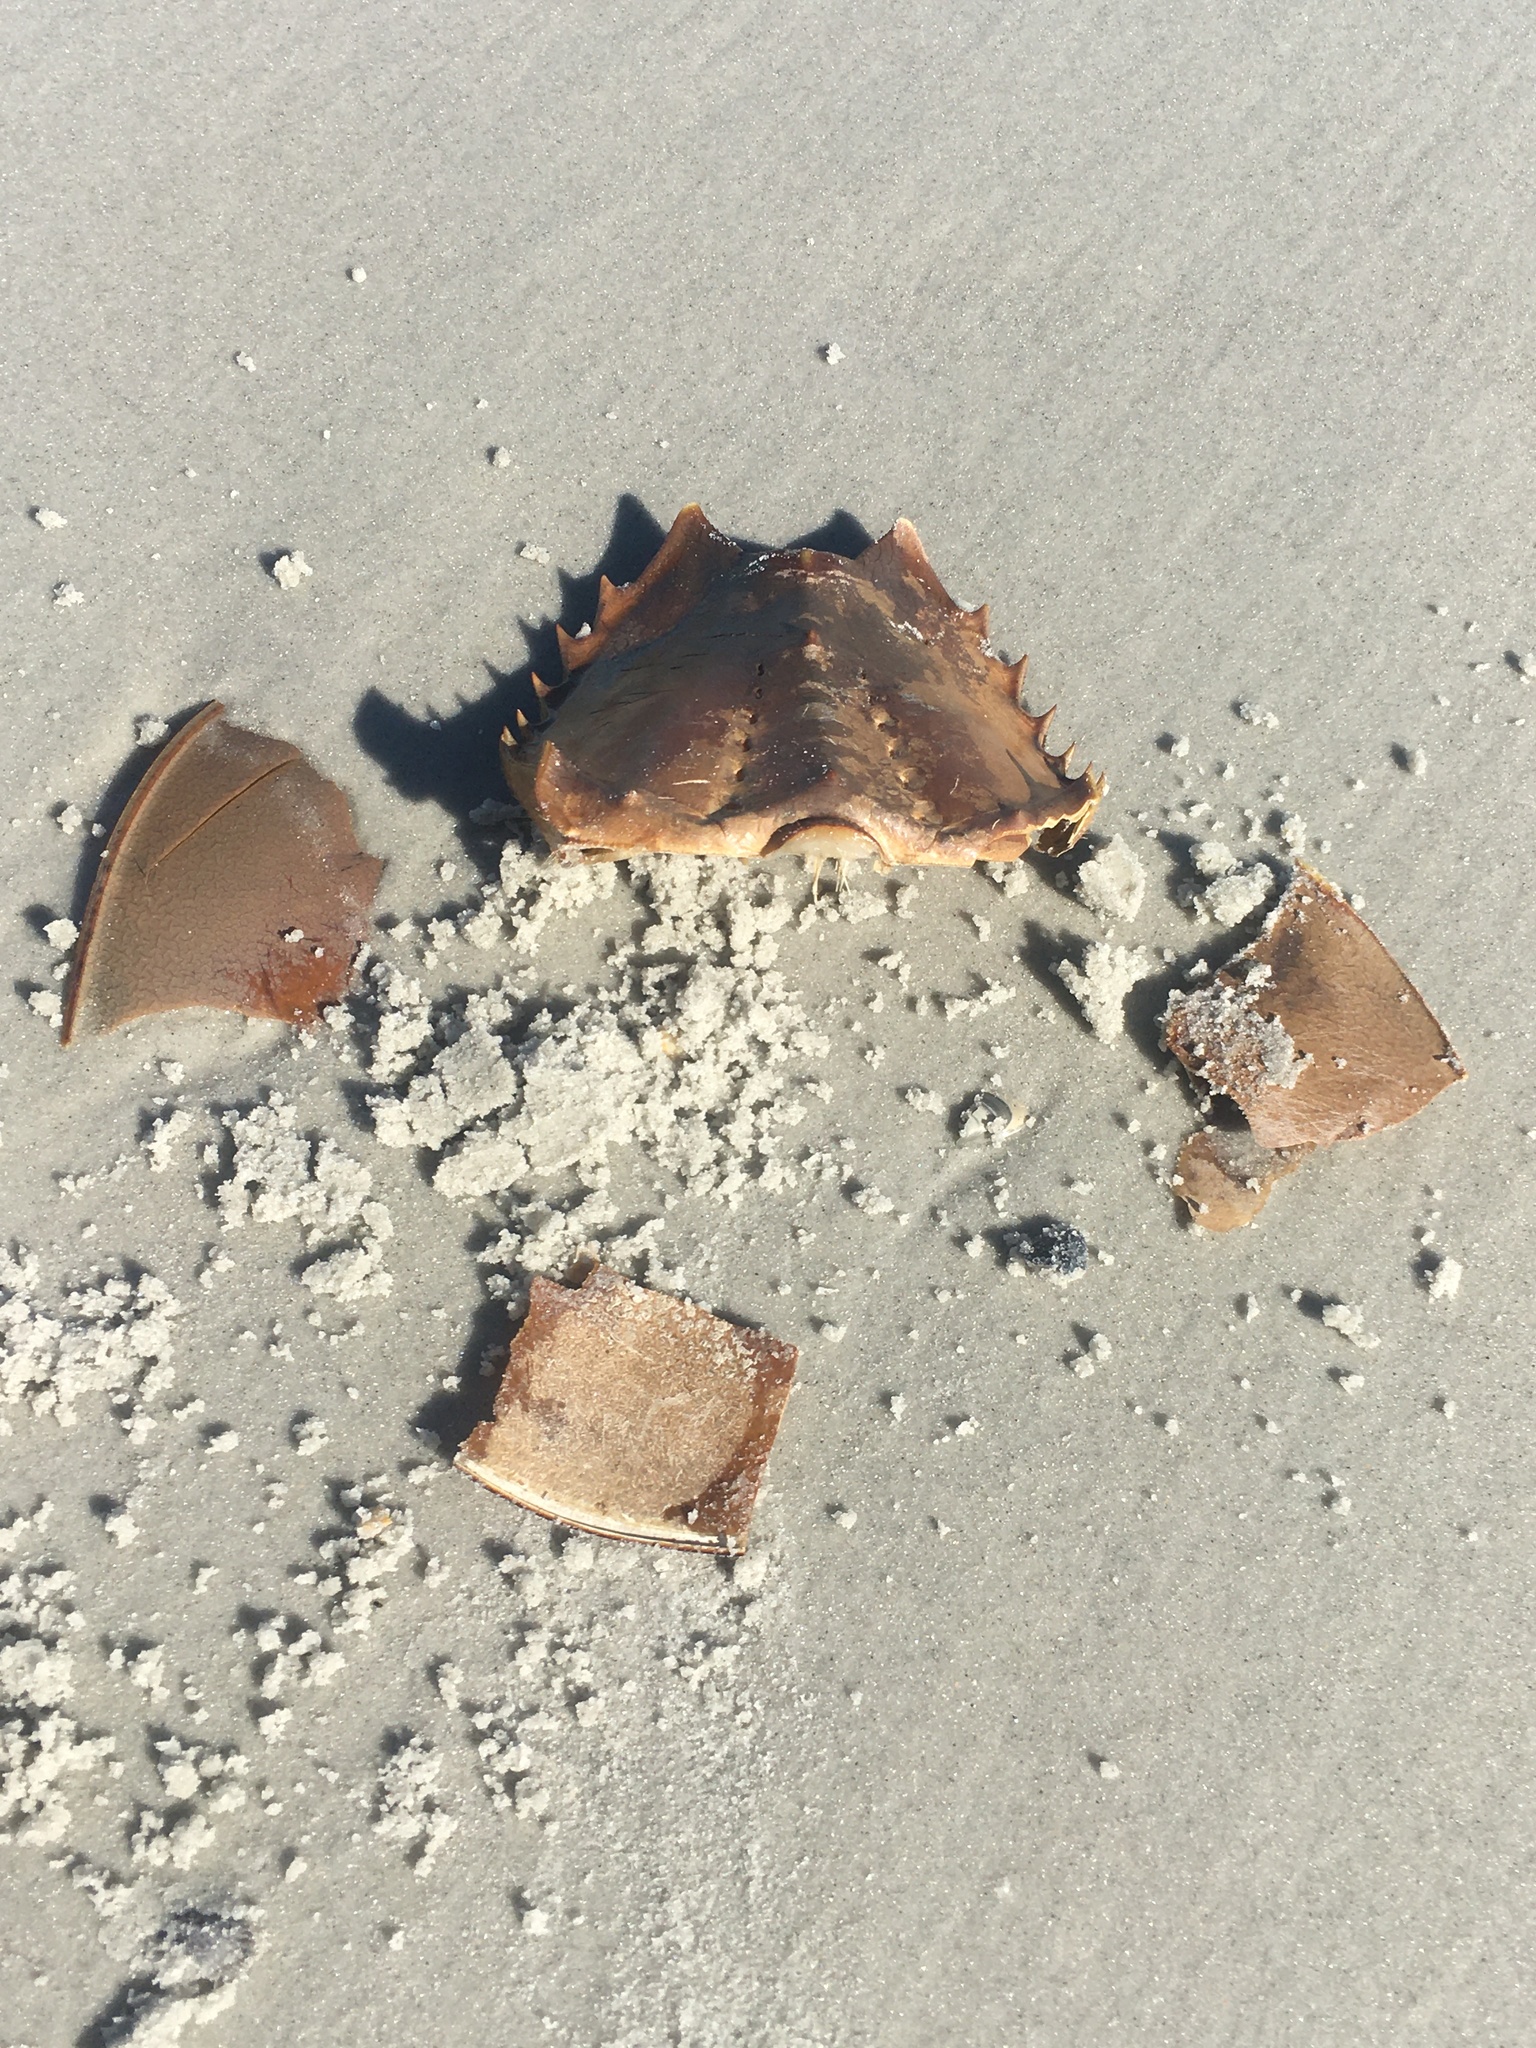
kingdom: Animalia
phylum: Arthropoda
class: Merostomata
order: Xiphosurida
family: Limulidae
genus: Limulus
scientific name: Limulus polyphemus
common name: Horseshoe crab
